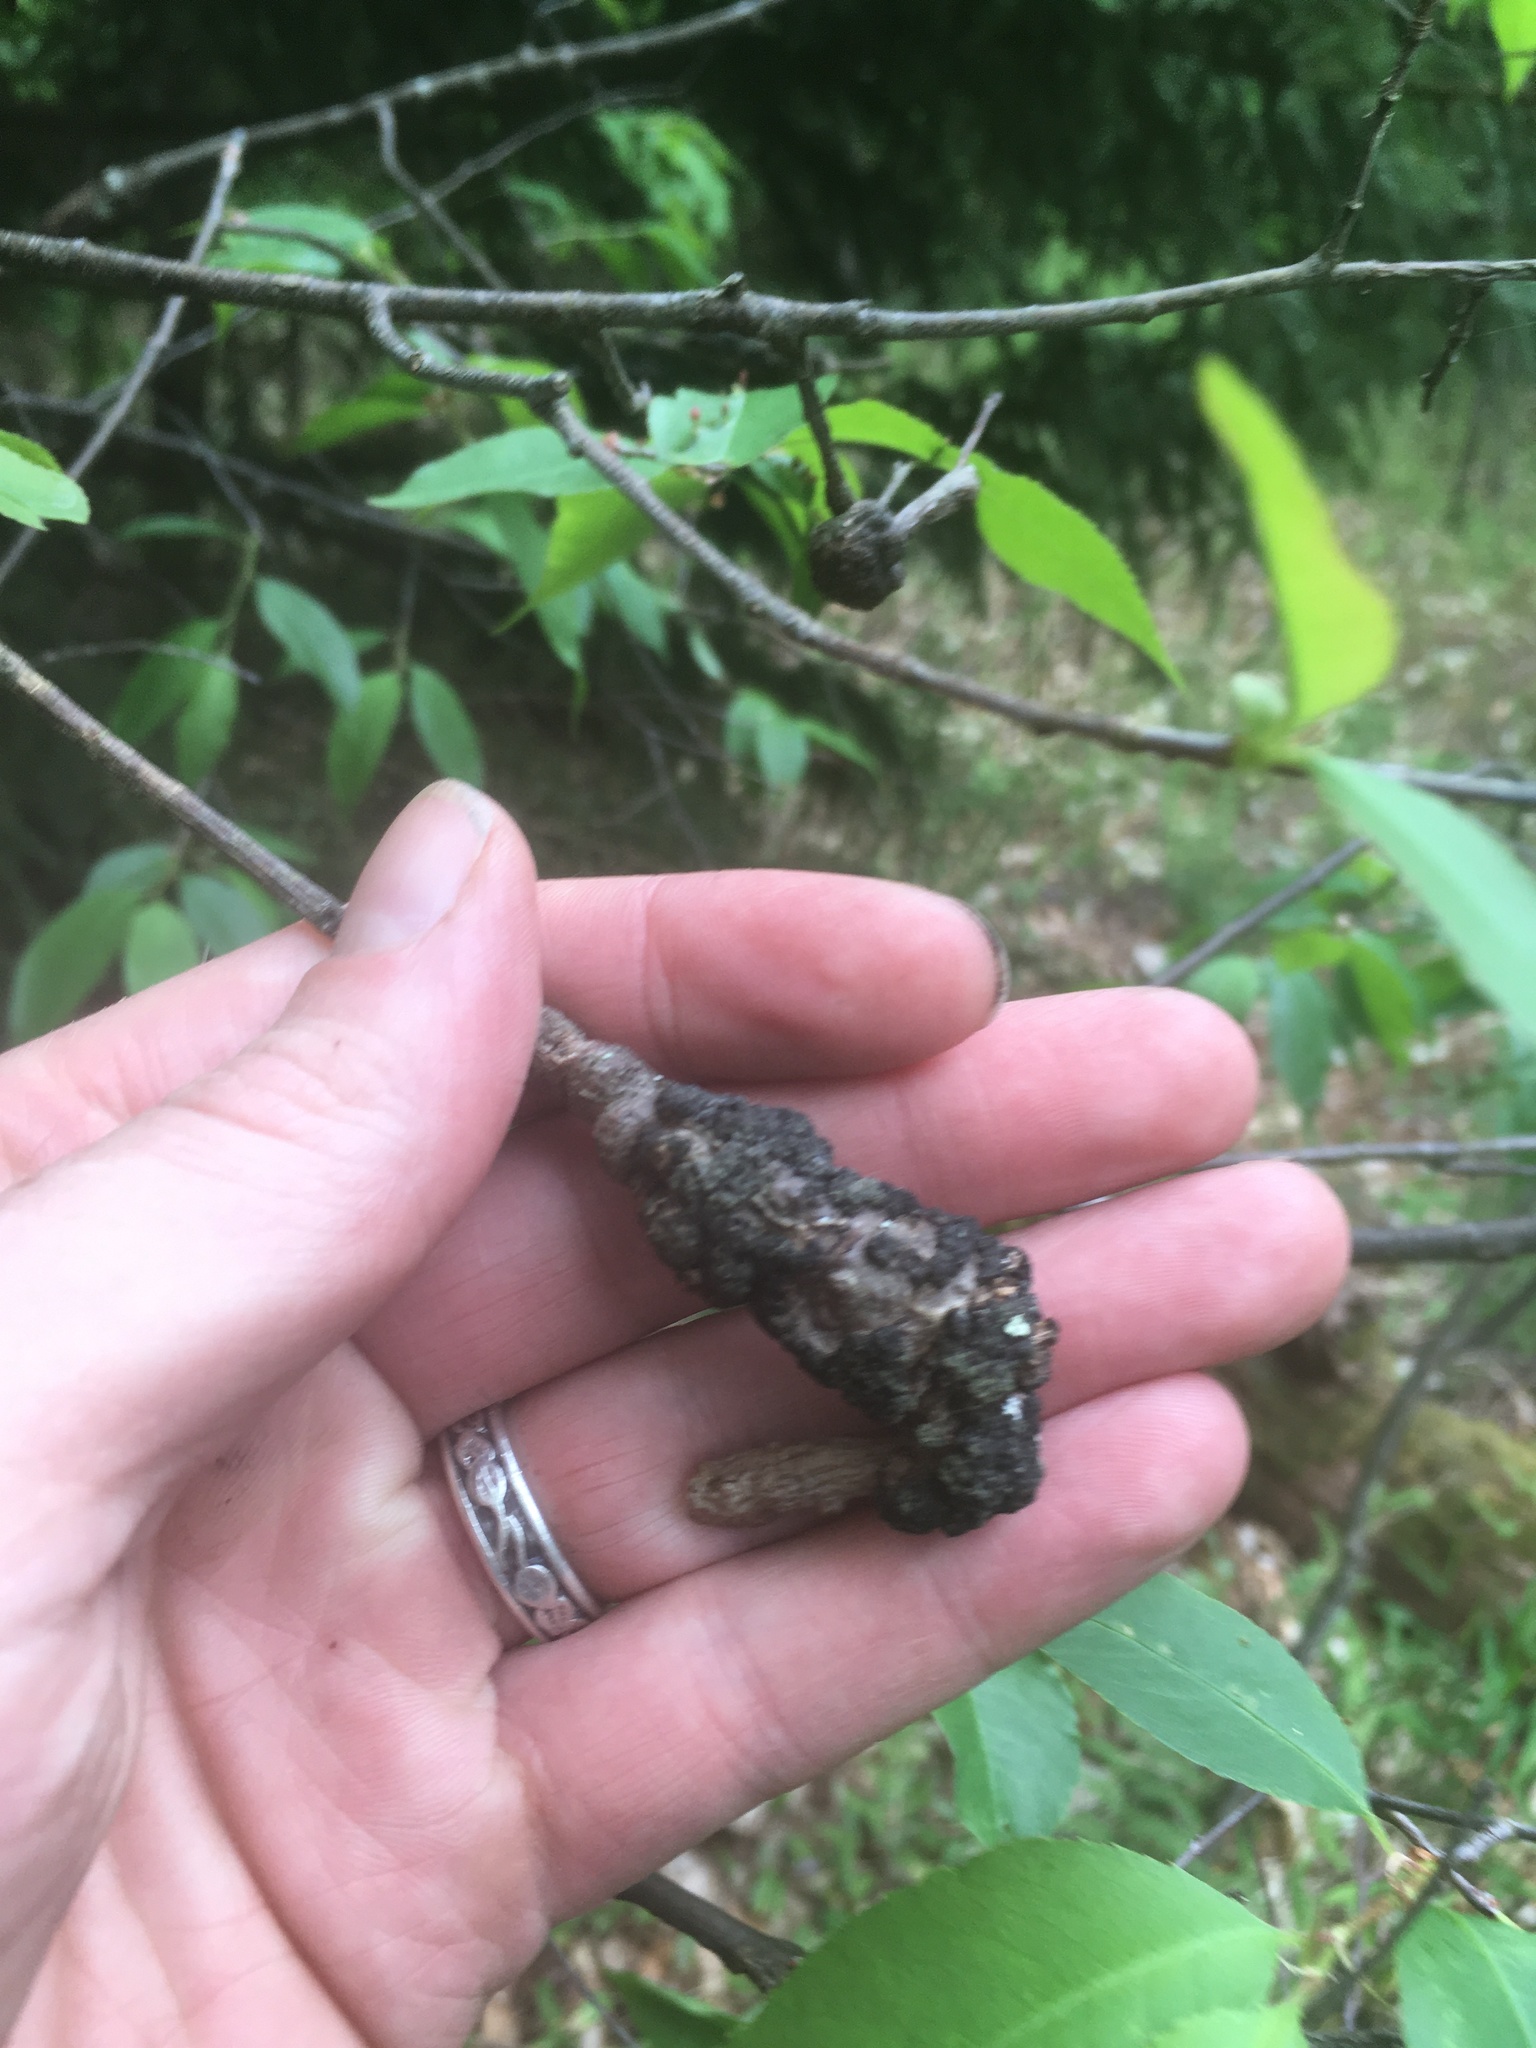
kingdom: Fungi
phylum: Ascomycota
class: Dothideomycetes
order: Venturiales
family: Venturiaceae
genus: Apiosporina
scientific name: Apiosporina morbosa
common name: Black knot
